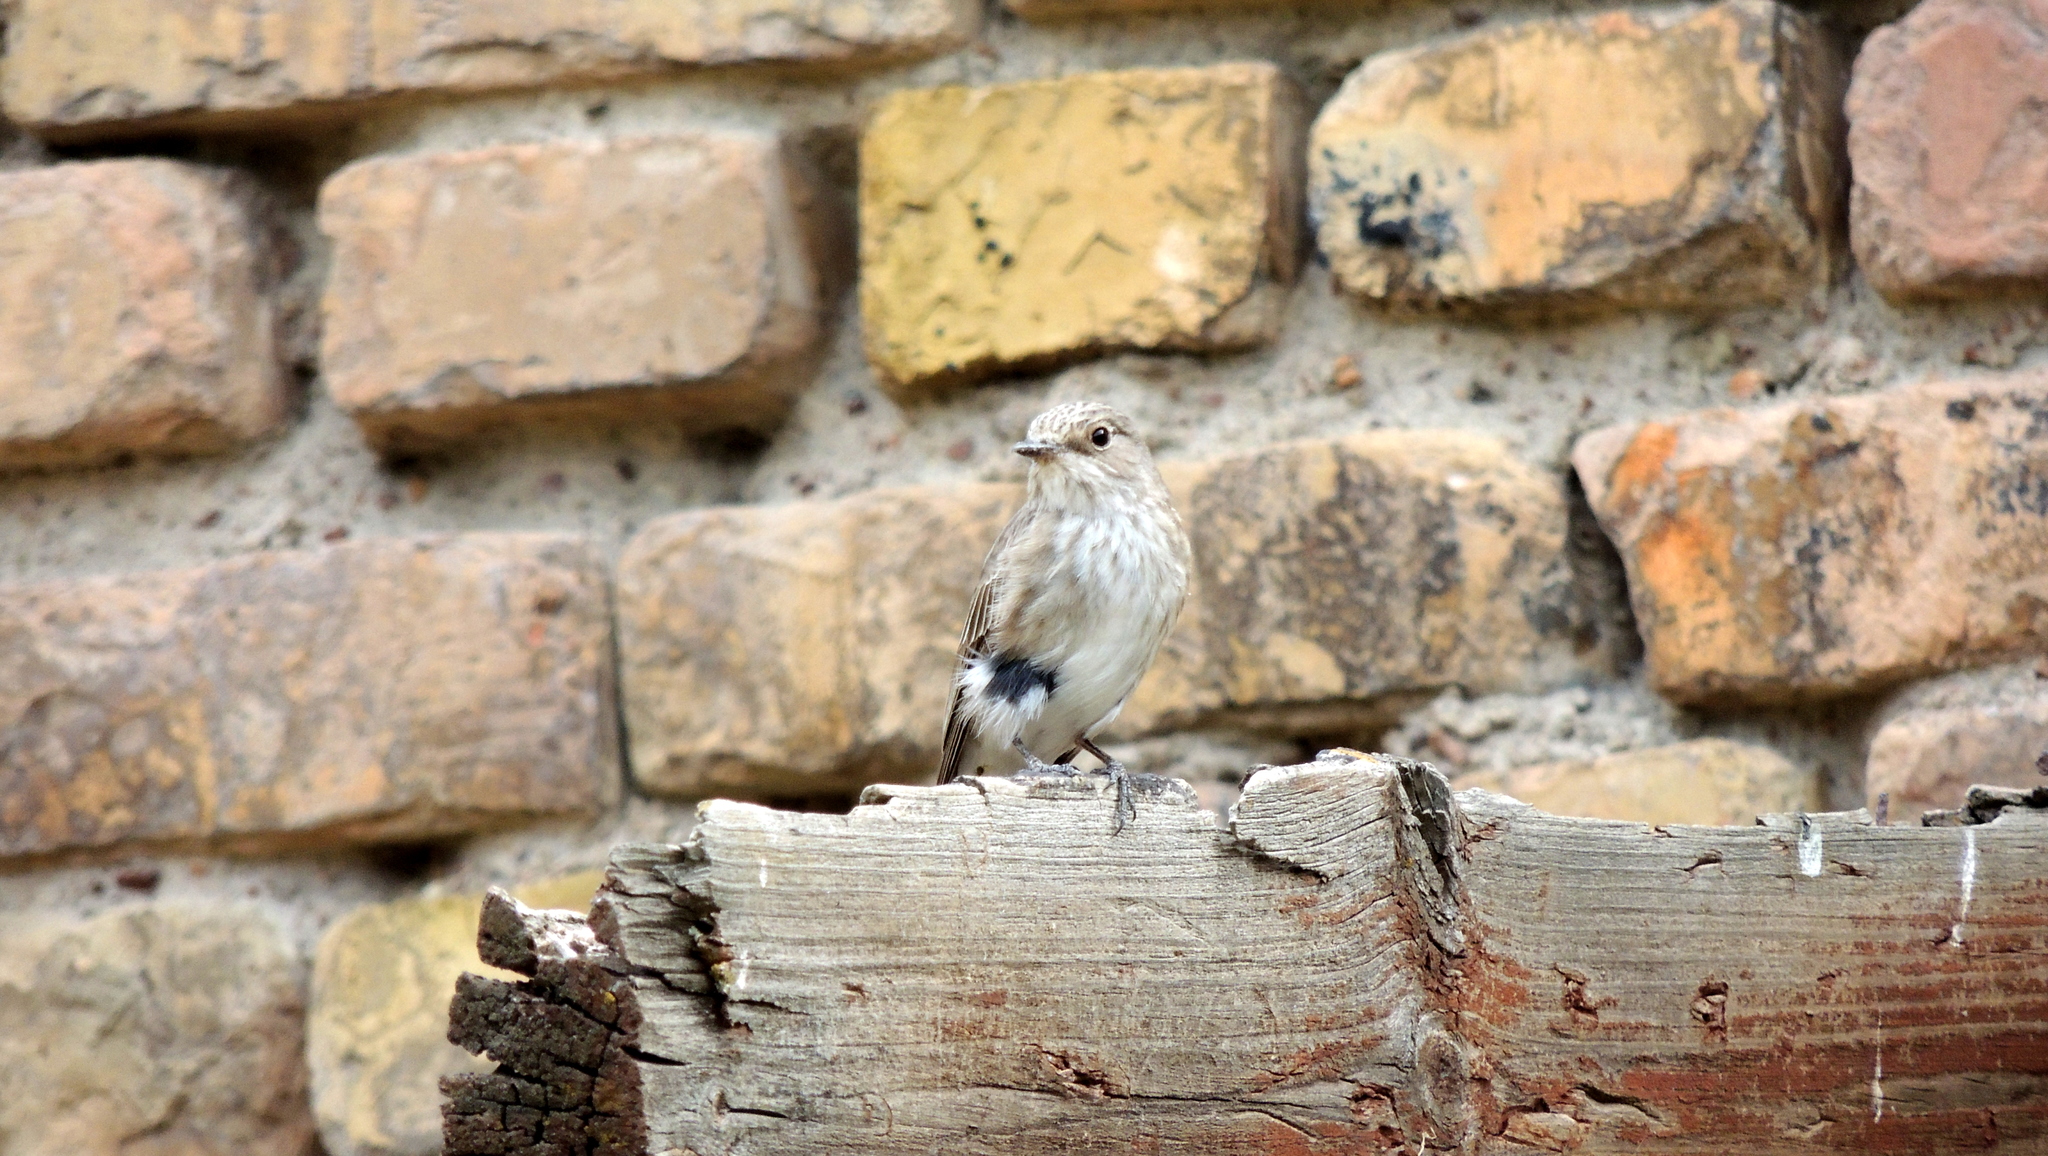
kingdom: Animalia
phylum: Chordata
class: Aves
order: Passeriformes
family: Muscicapidae
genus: Muscicapa
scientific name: Muscicapa striata
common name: Spotted flycatcher
